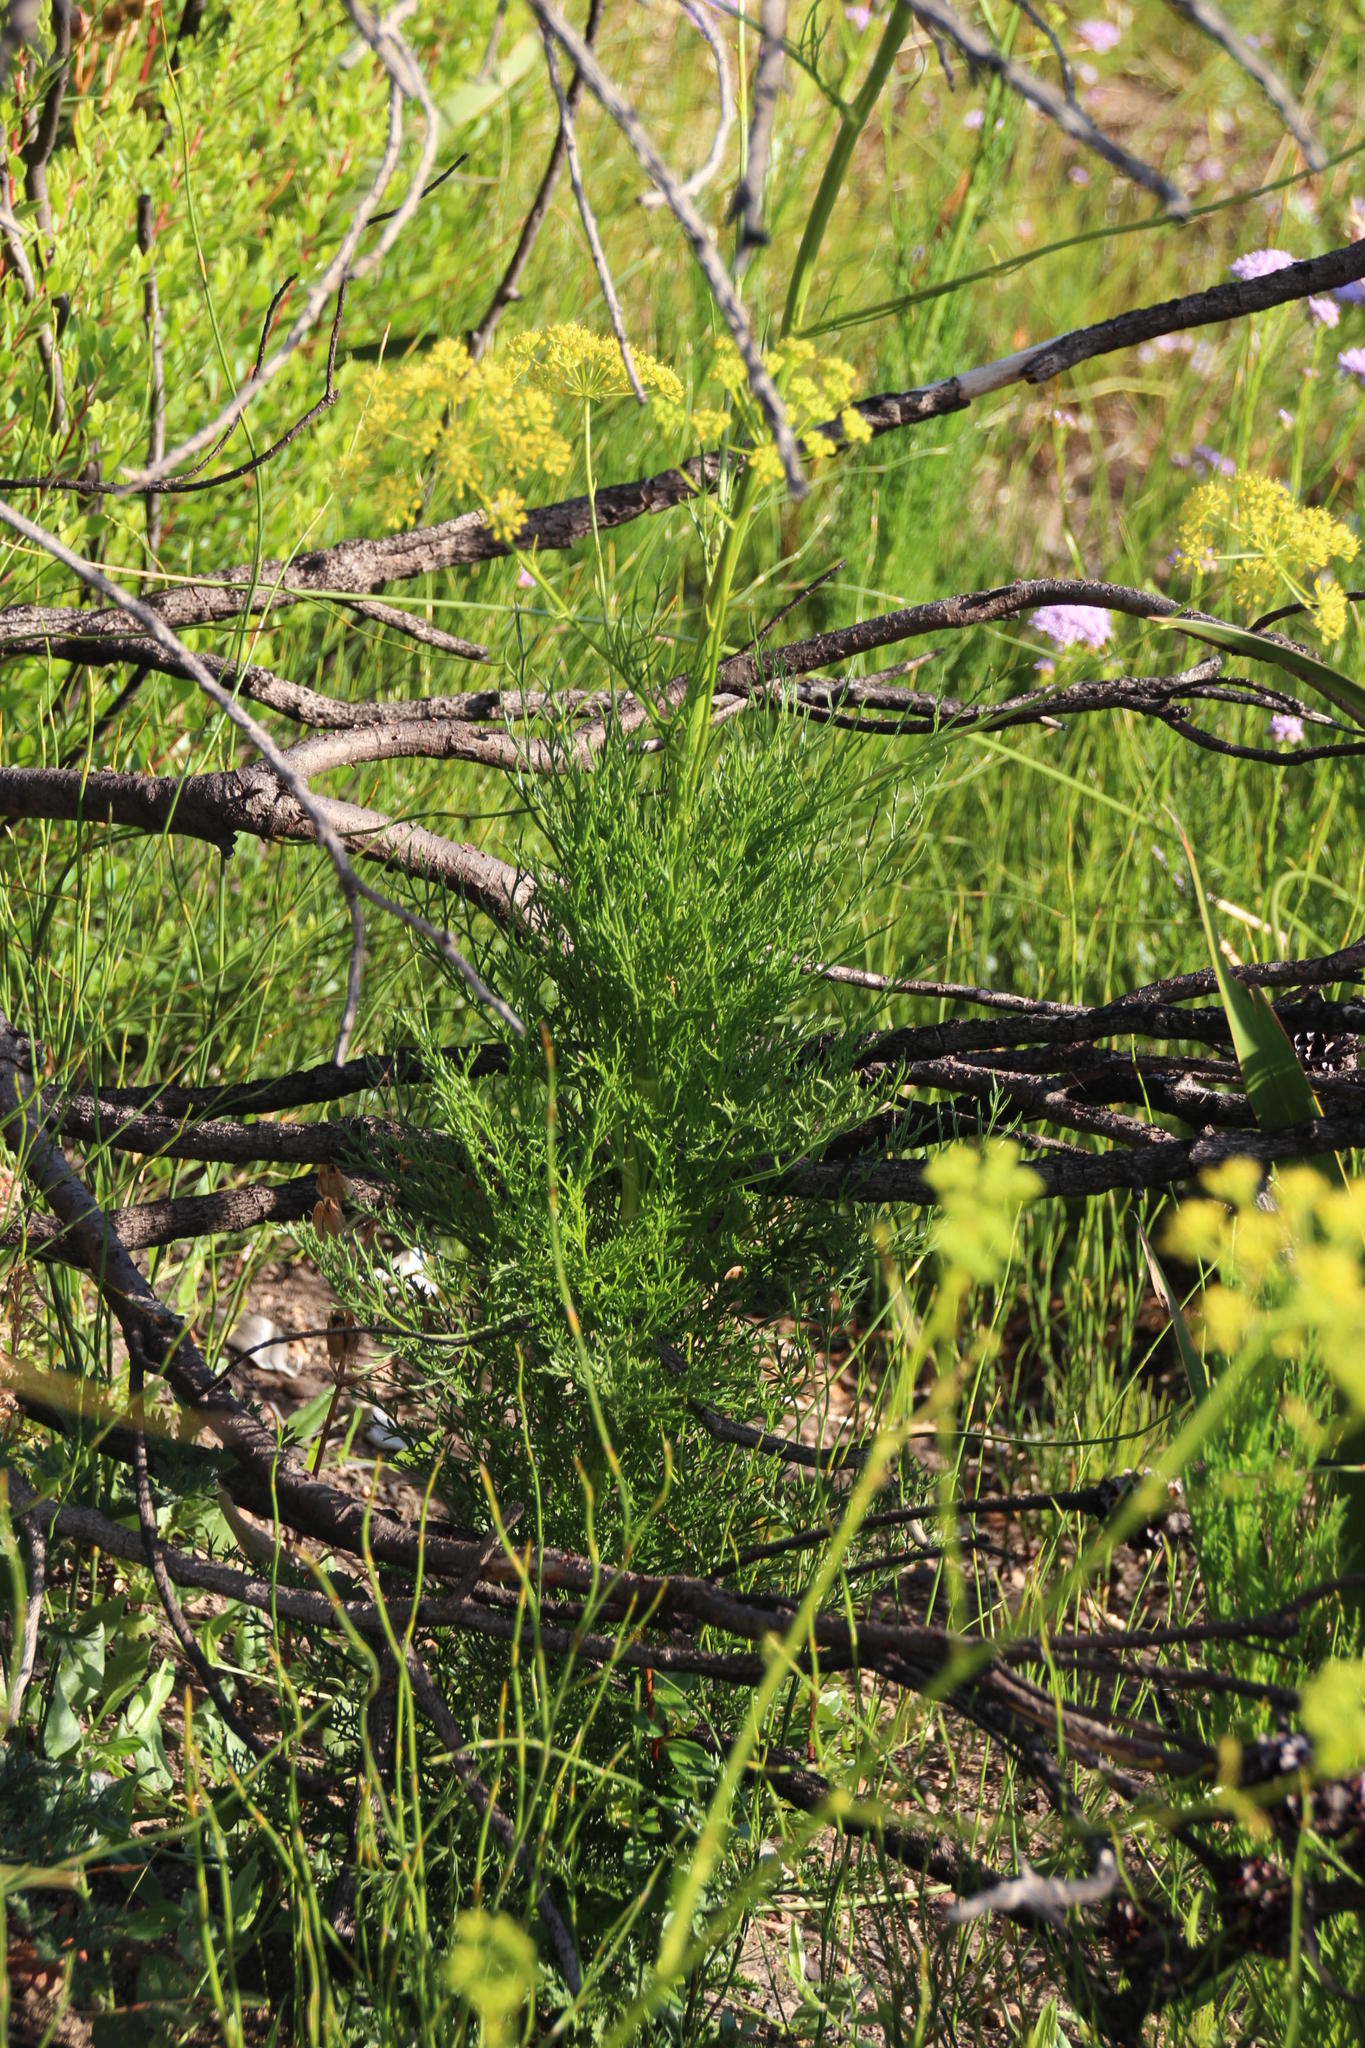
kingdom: Plantae
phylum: Tracheophyta
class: Magnoliopsida
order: Apiales
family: Apiaceae
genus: Glia
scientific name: Glia prolifera
